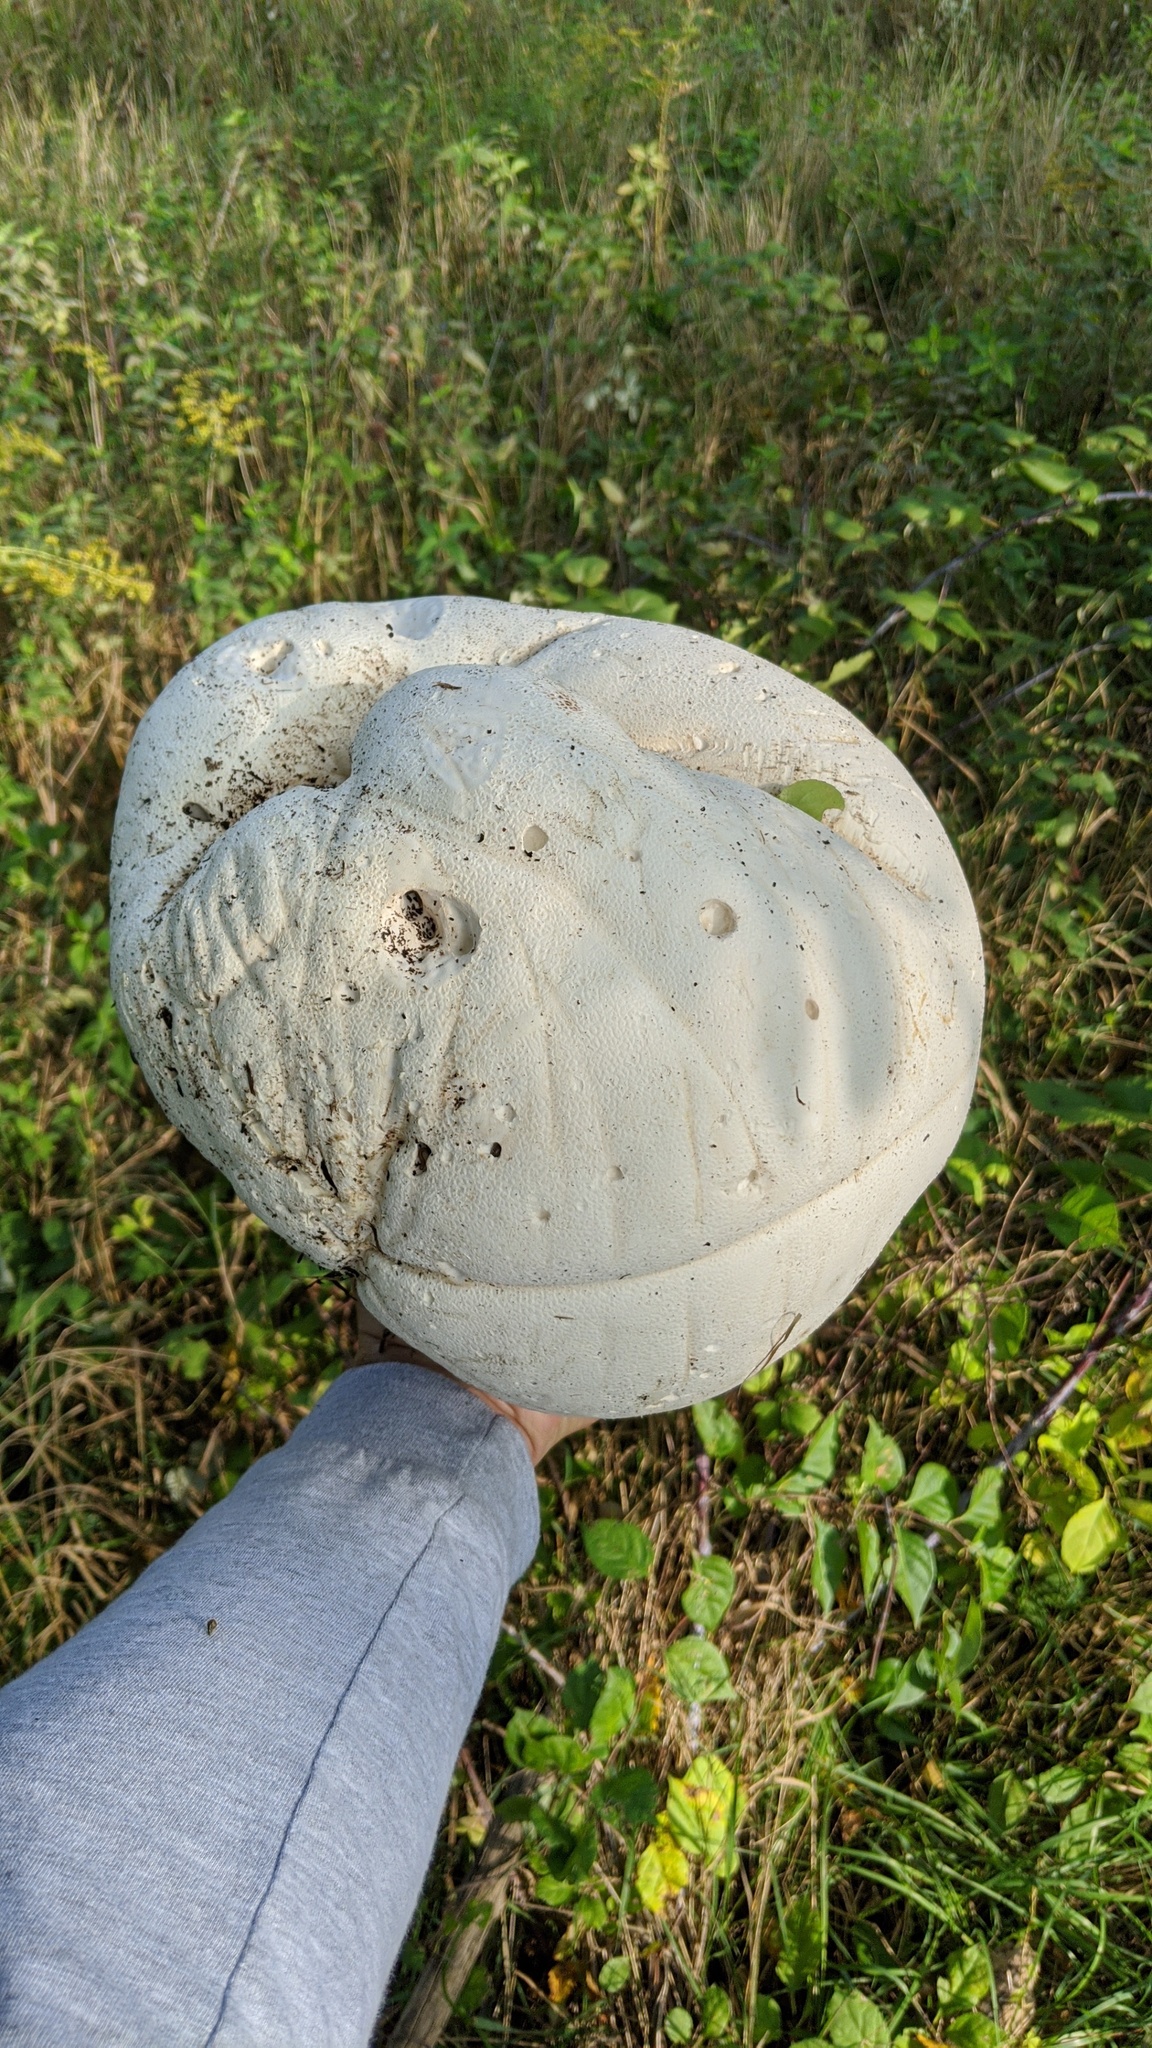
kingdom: Fungi
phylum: Basidiomycota
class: Agaricomycetes
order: Agaricales
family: Lycoperdaceae
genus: Calvatia
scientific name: Calvatia gigantea
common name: Giant puffball
